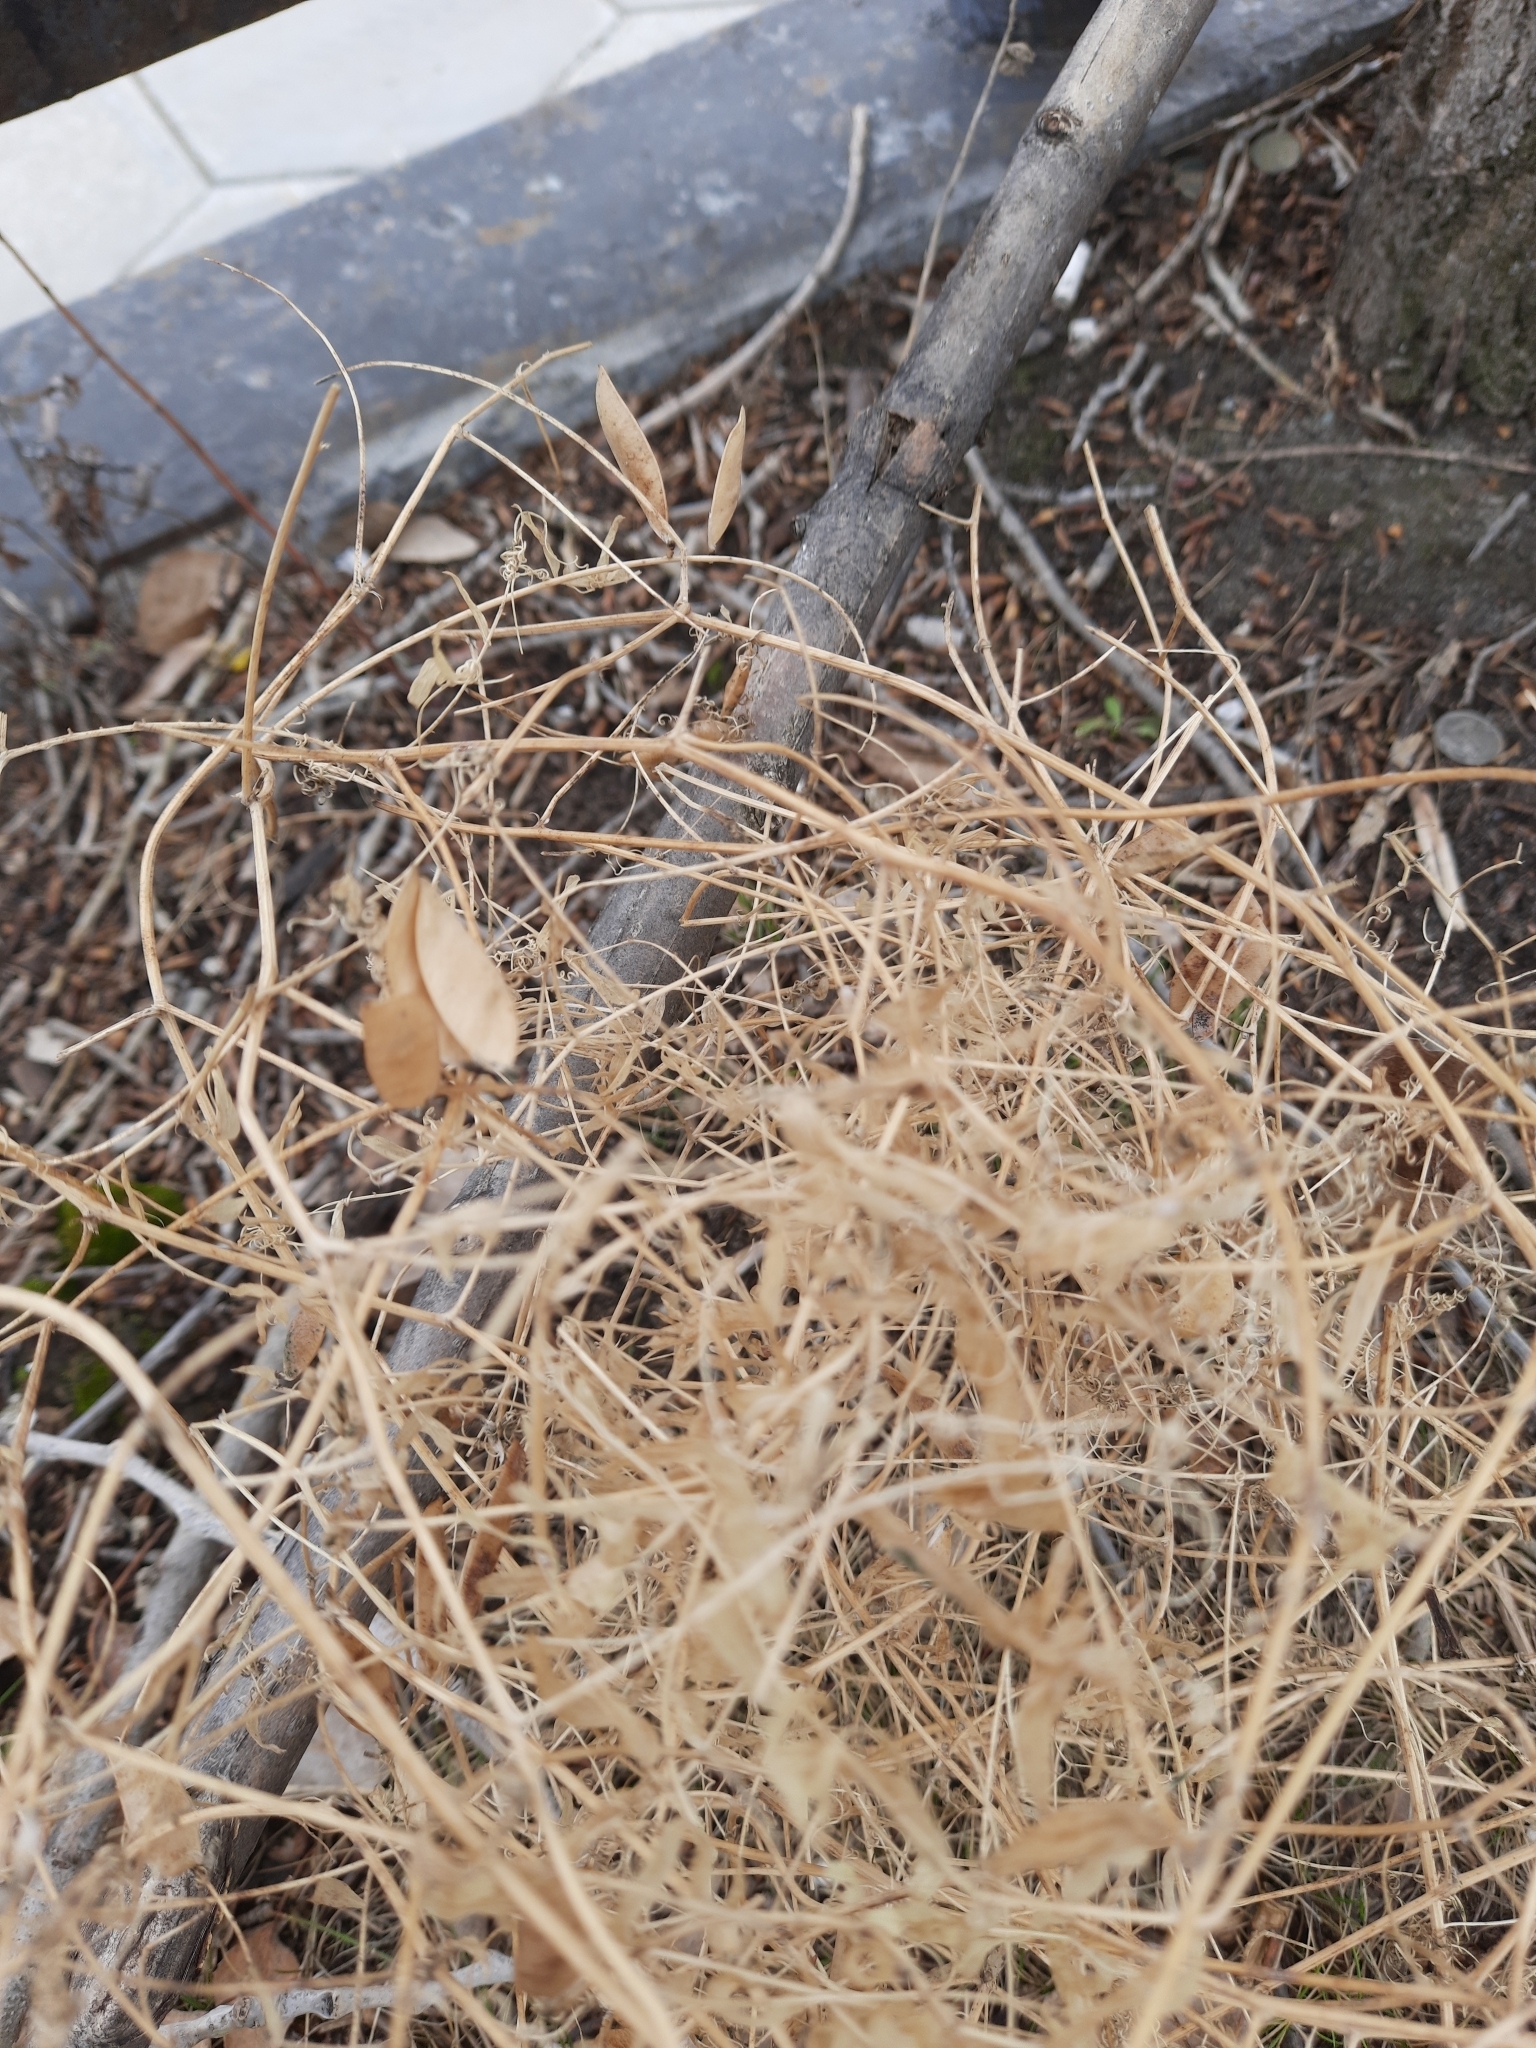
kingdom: Plantae
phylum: Tracheophyta
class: Magnoliopsida
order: Fabales
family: Fabaceae
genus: Vicia
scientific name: Vicia cracca
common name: Bird vetch
